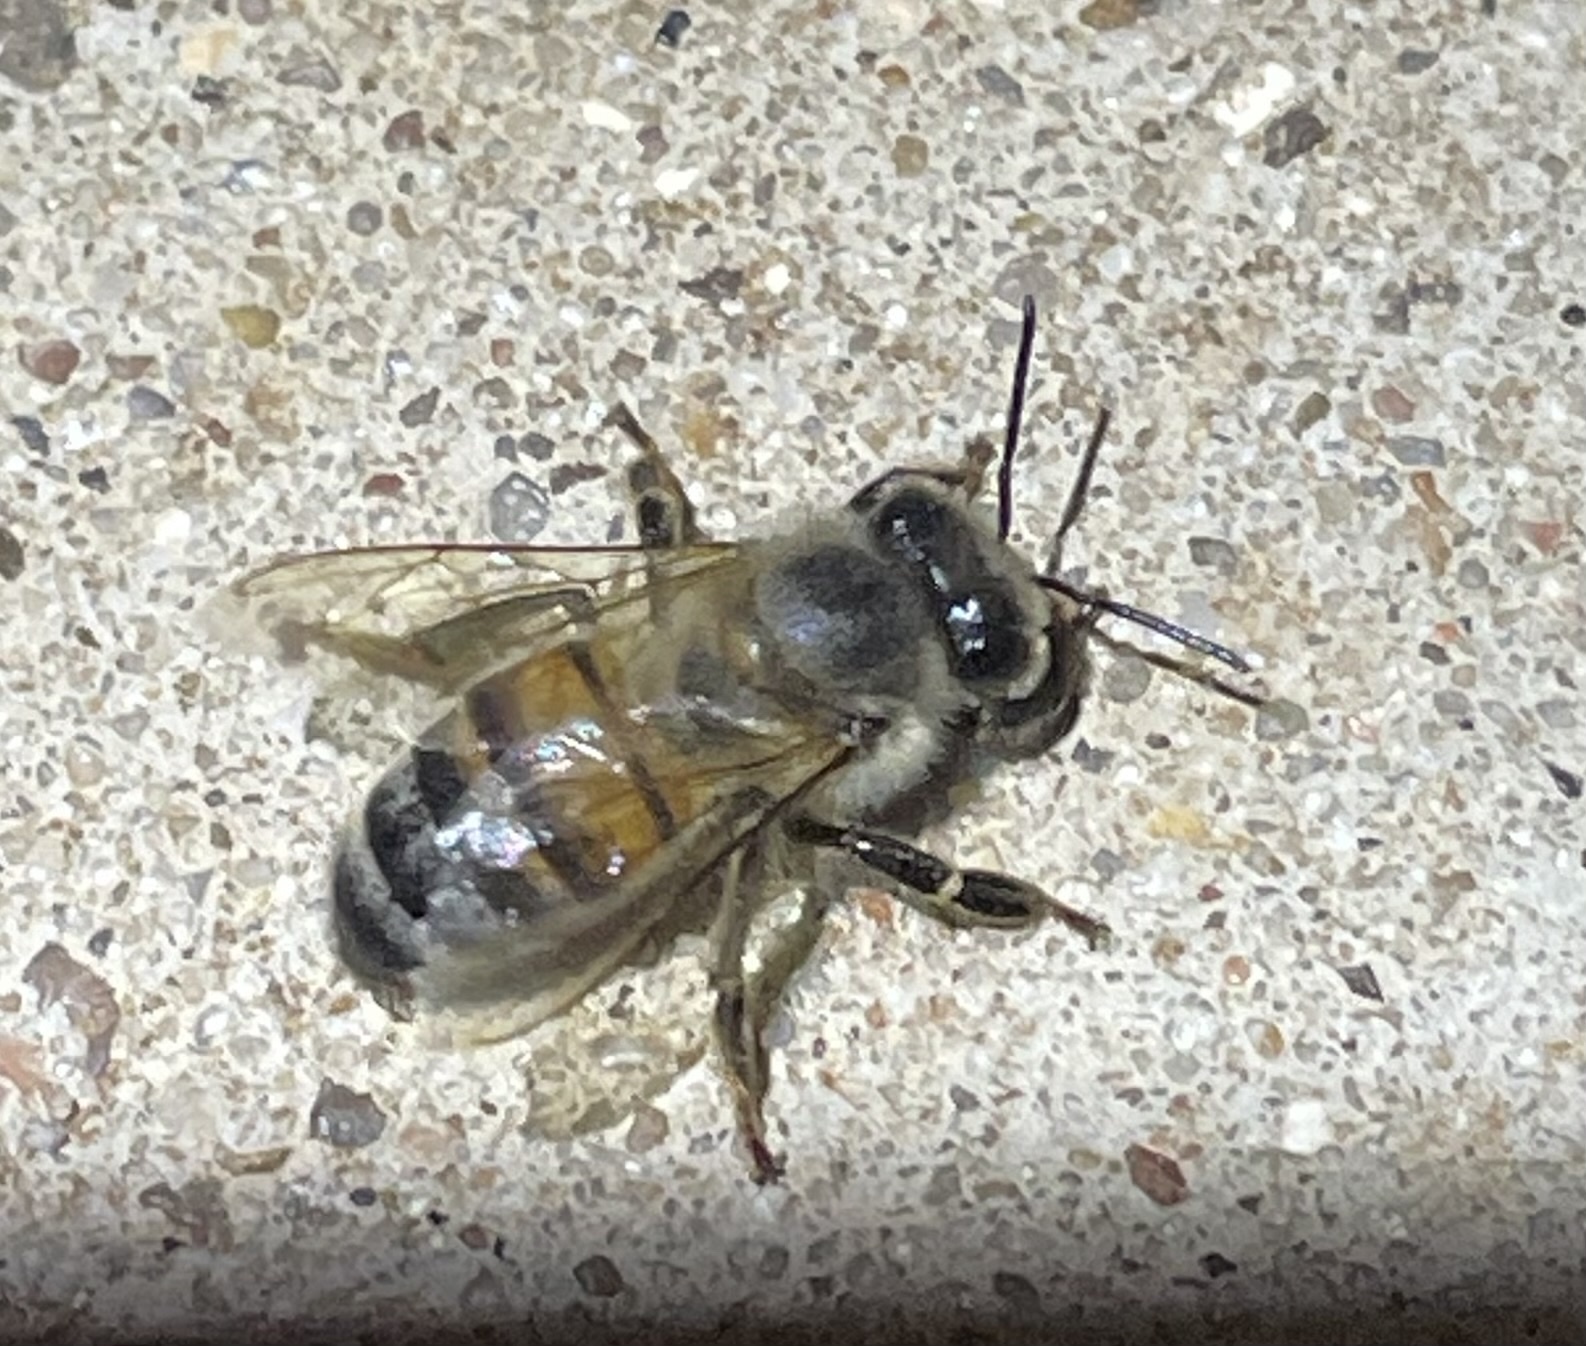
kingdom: Animalia
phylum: Arthropoda
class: Insecta
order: Hymenoptera
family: Apidae
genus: Apis
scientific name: Apis mellifera
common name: Honey bee
